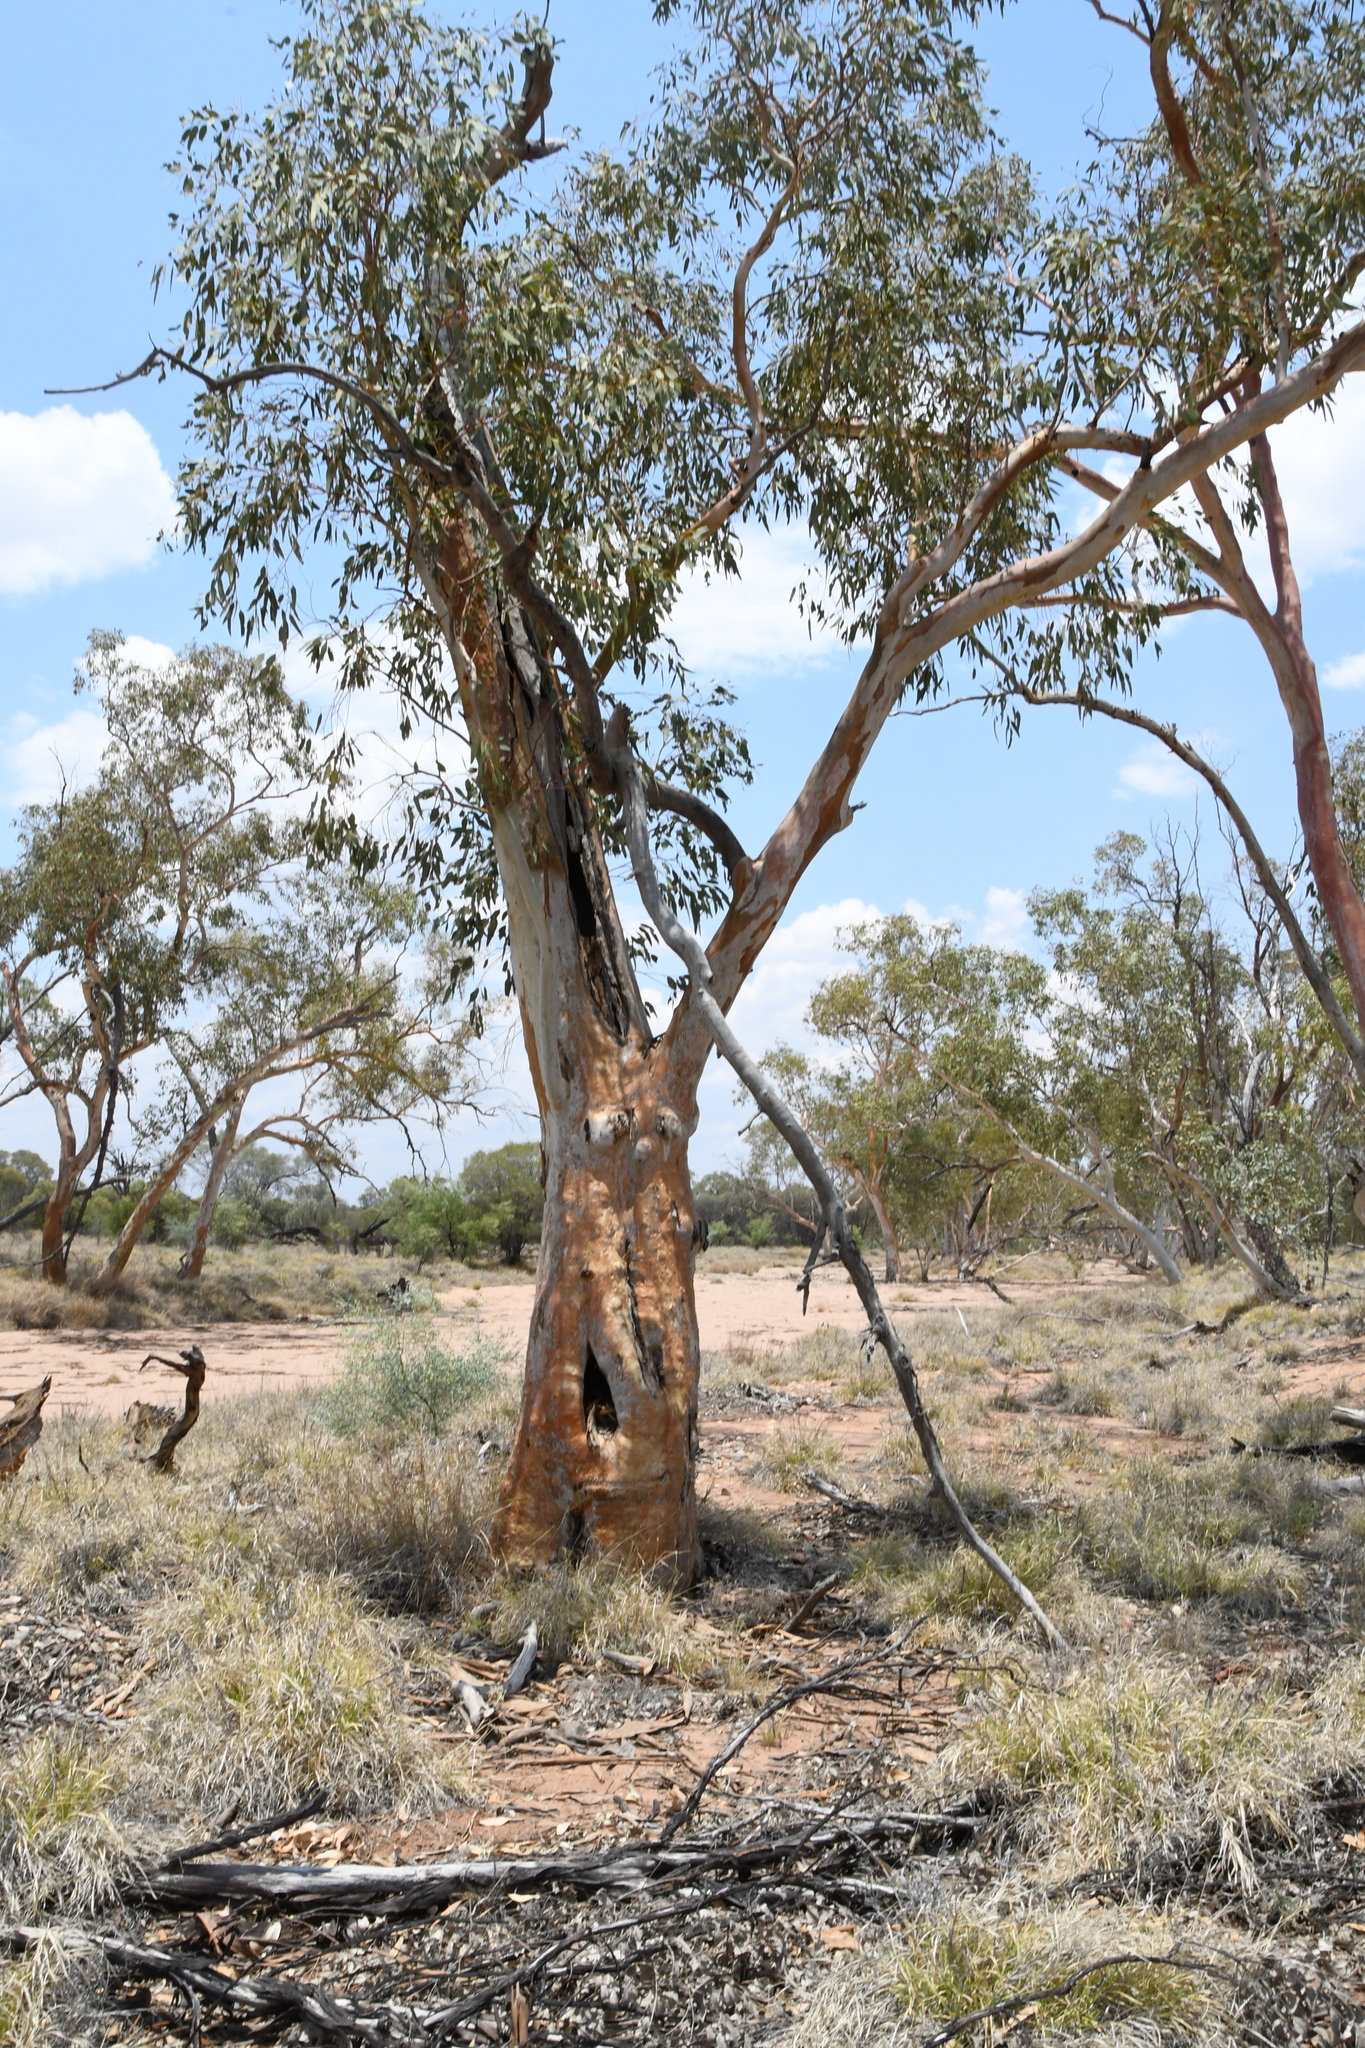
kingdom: Plantae
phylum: Tracheophyta
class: Magnoliopsida
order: Myrtales
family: Myrtaceae
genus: Eucalyptus
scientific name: Eucalyptus camaldulensis
